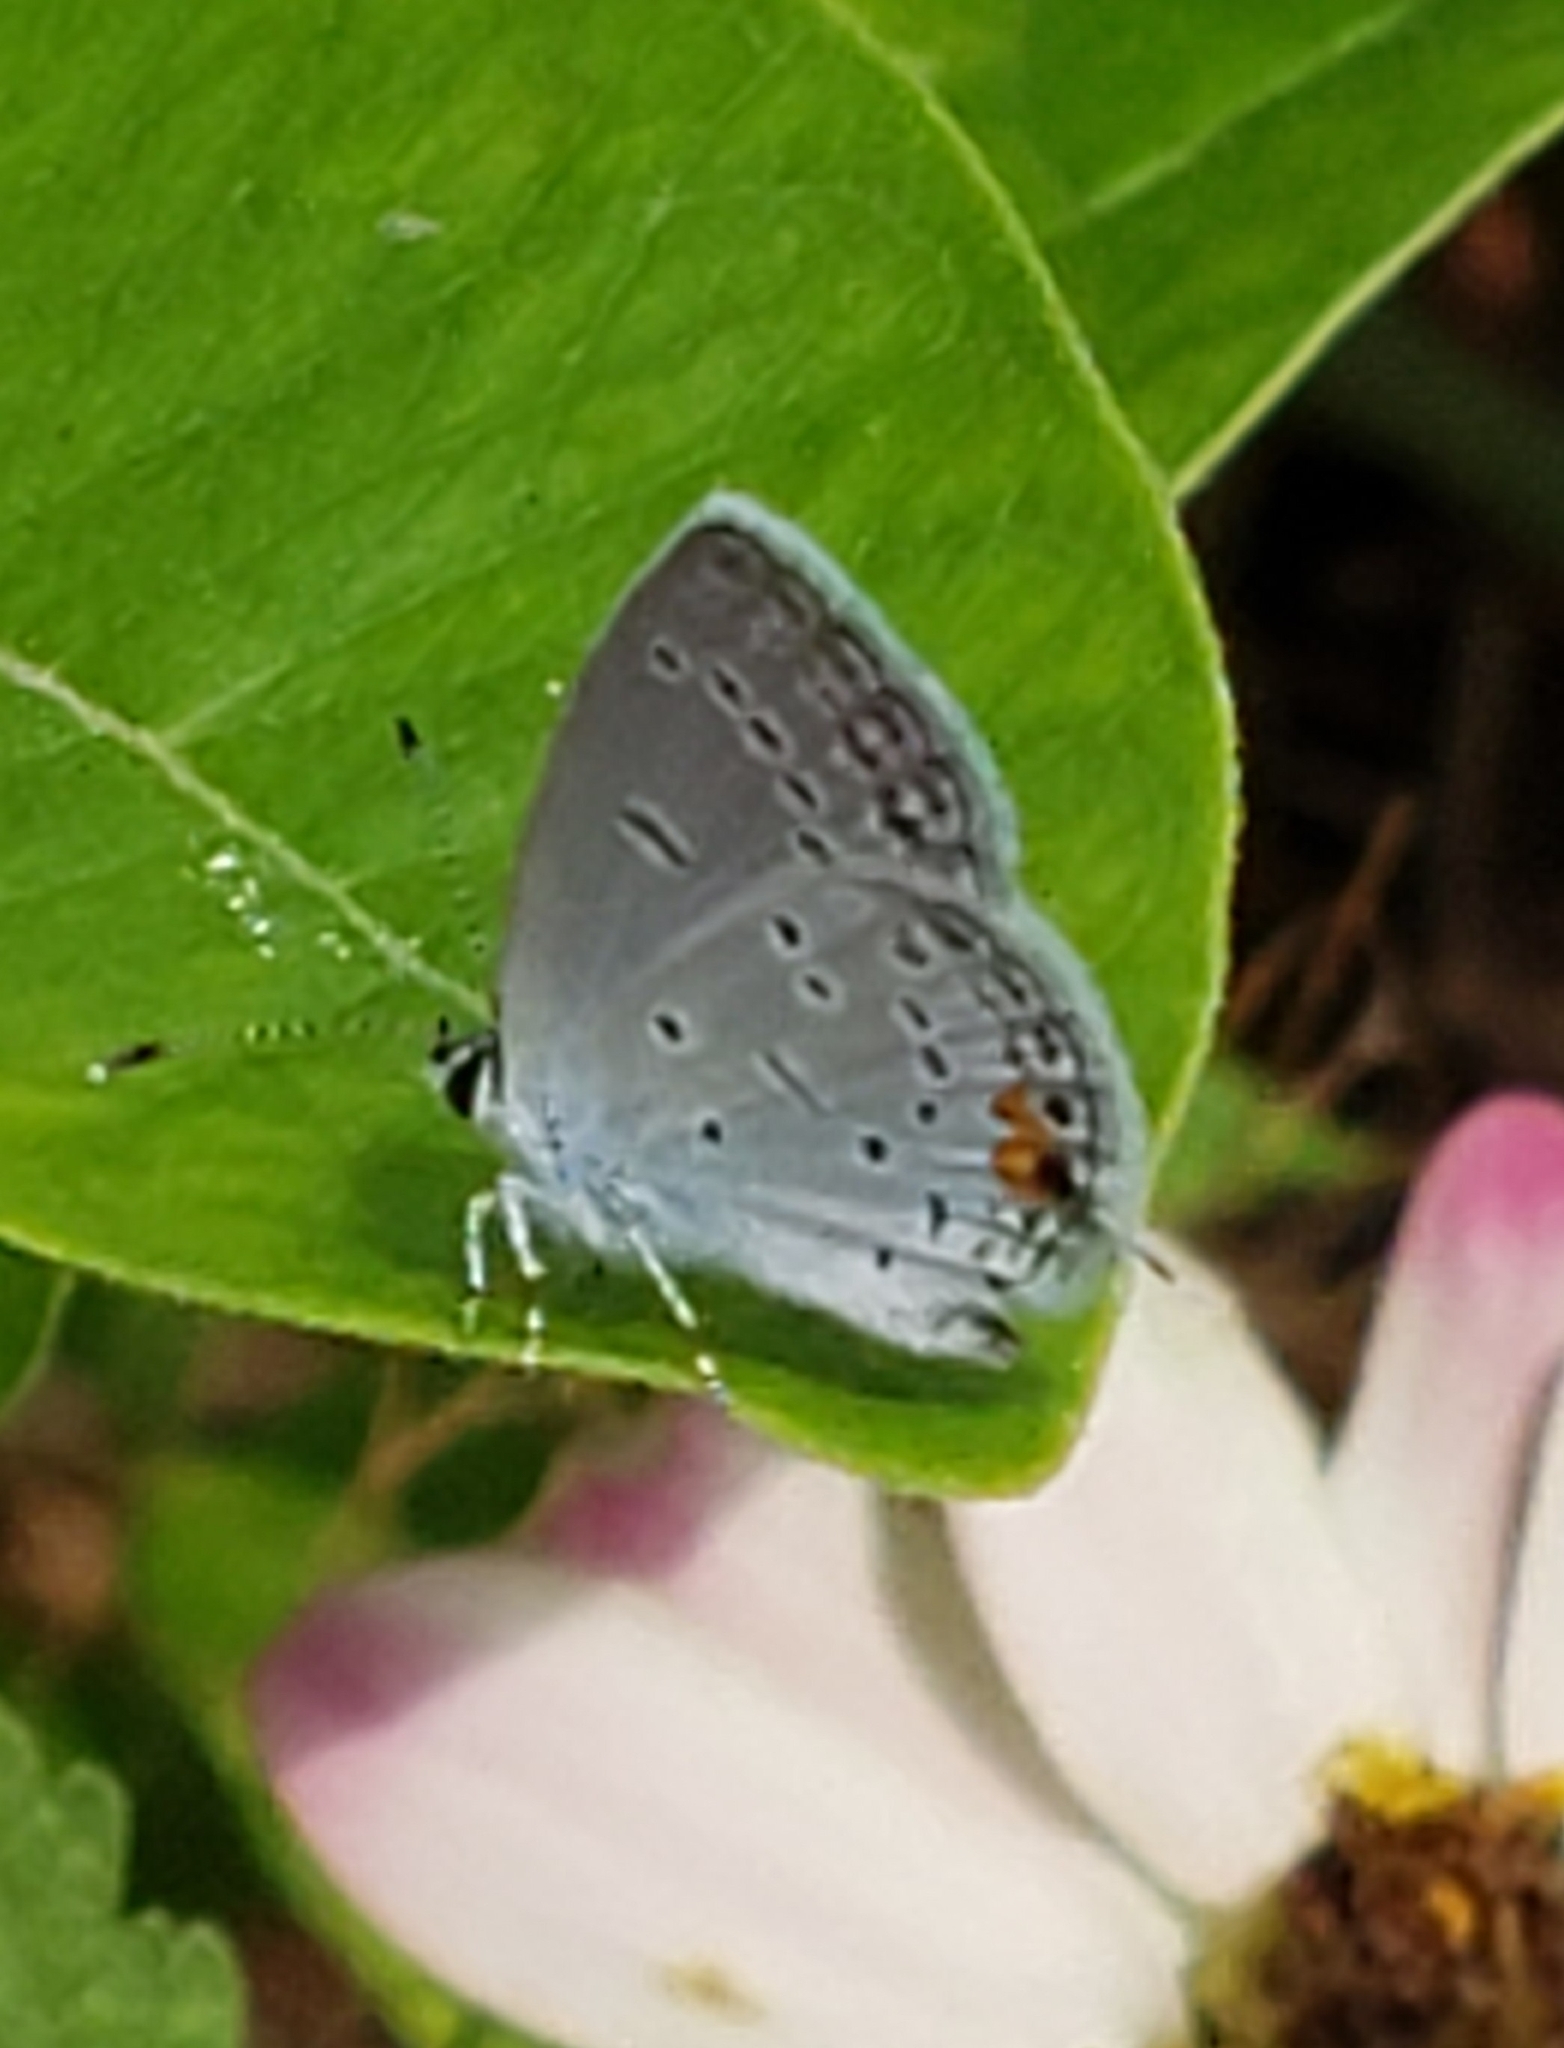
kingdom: Animalia
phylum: Arthropoda
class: Insecta
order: Lepidoptera
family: Lycaenidae
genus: Elkalyce
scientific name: Elkalyce comyntas
